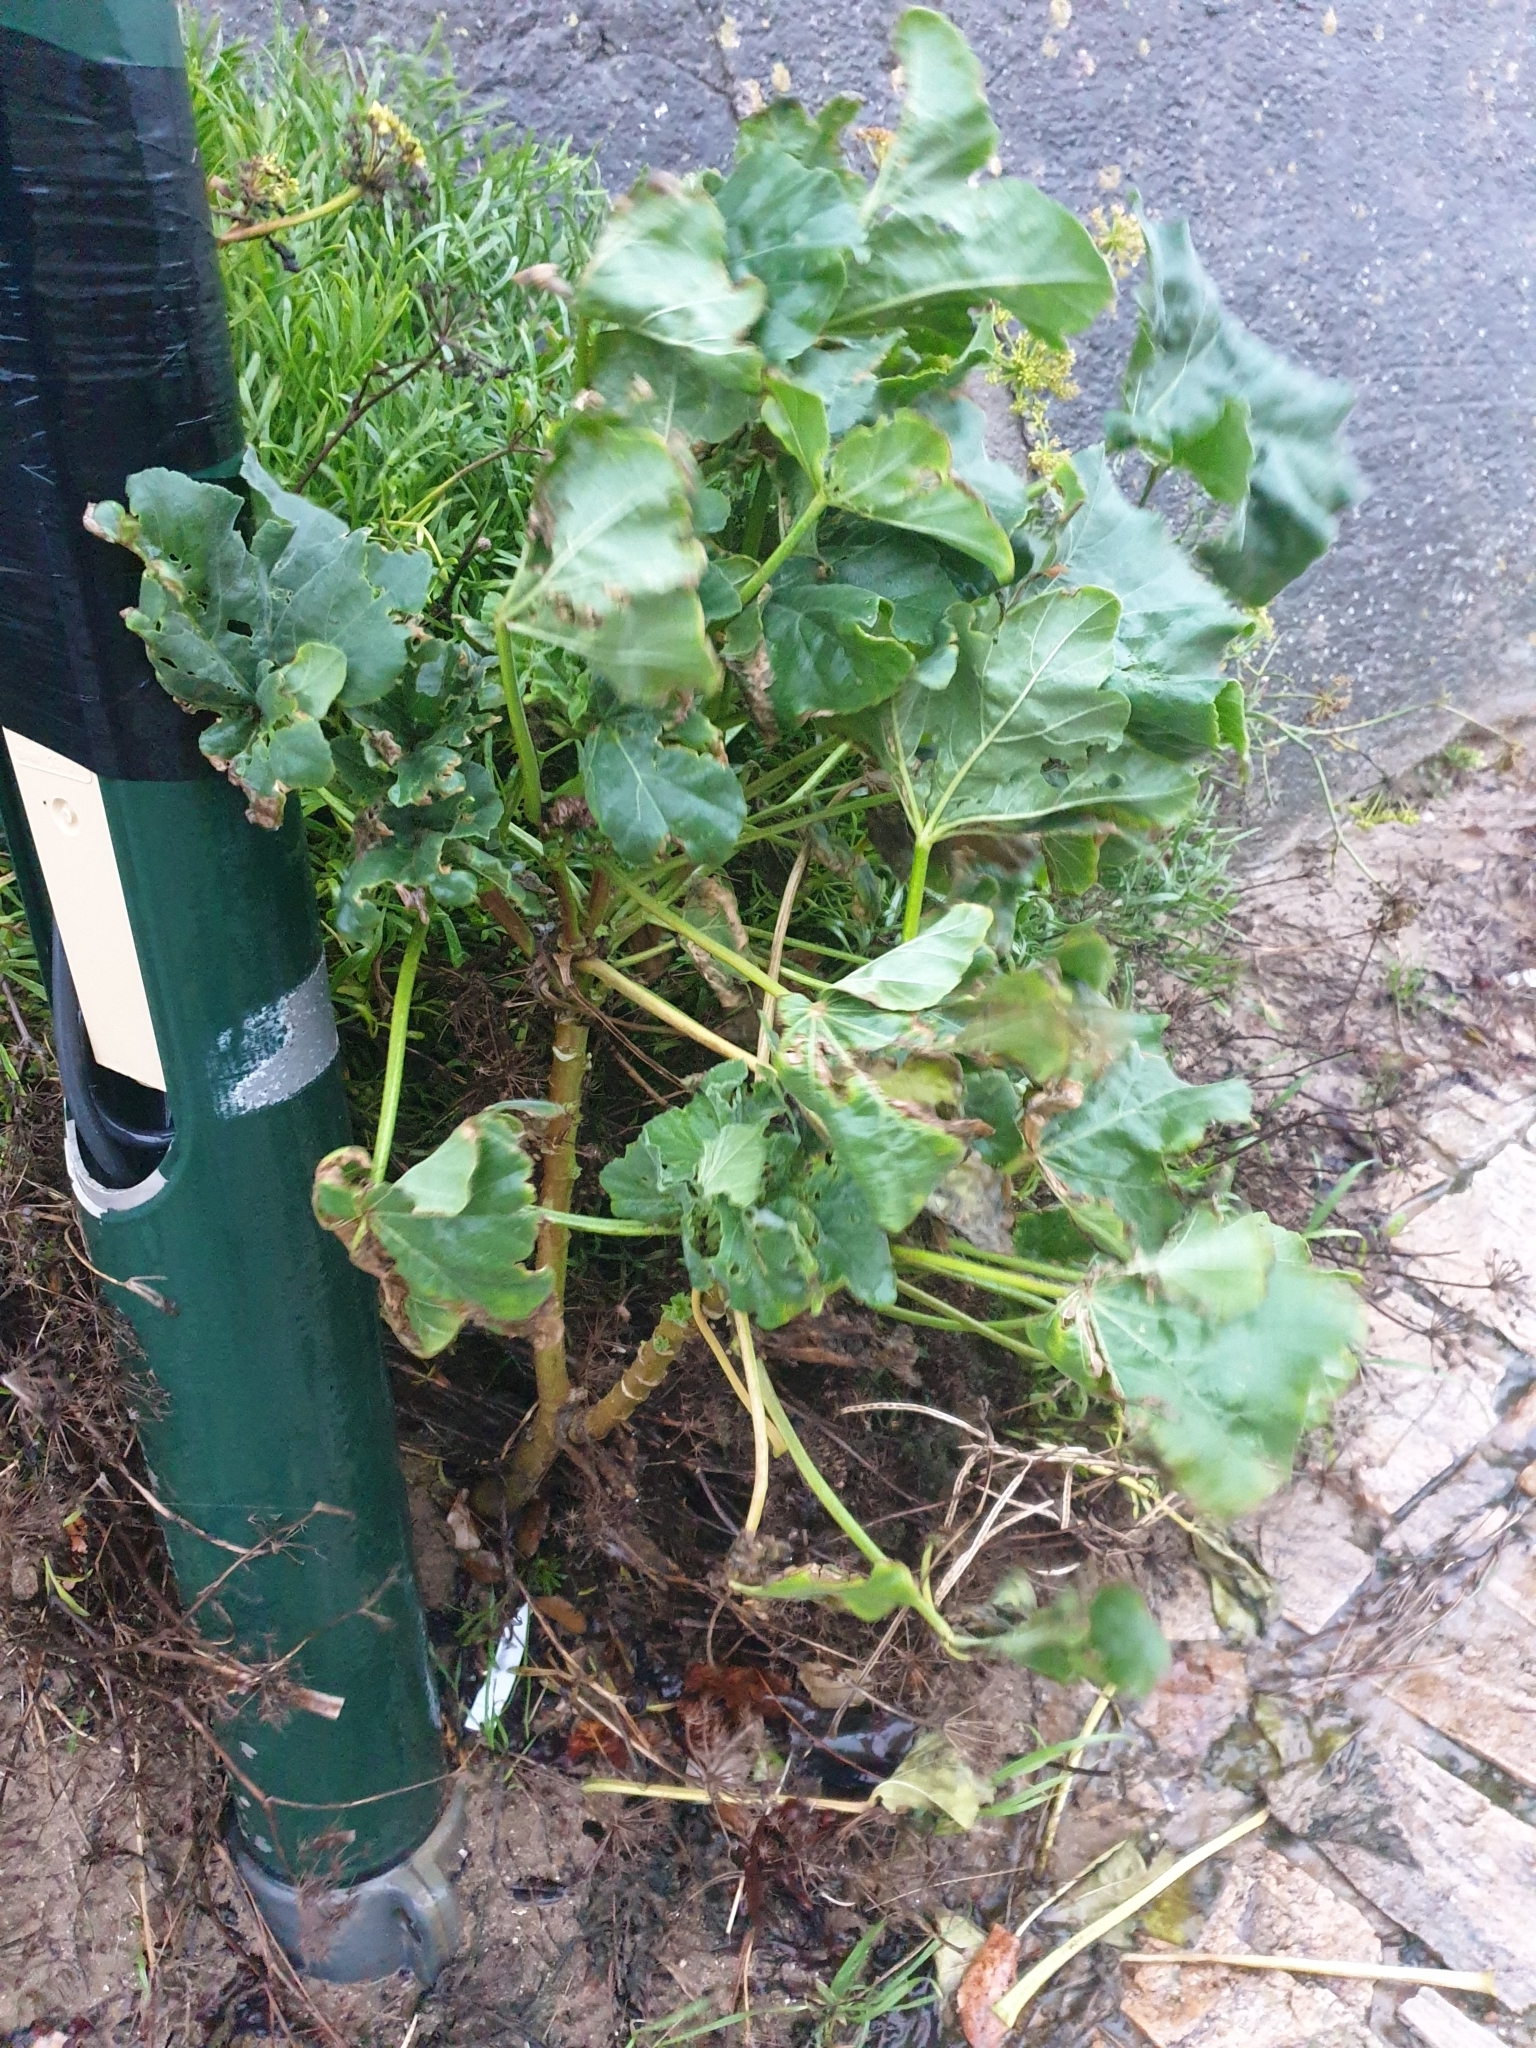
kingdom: Plantae
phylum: Tracheophyta
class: Magnoliopsida
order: Malvales
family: Malvaceae
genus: Malva
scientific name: Malva arborea
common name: Tree mallow
